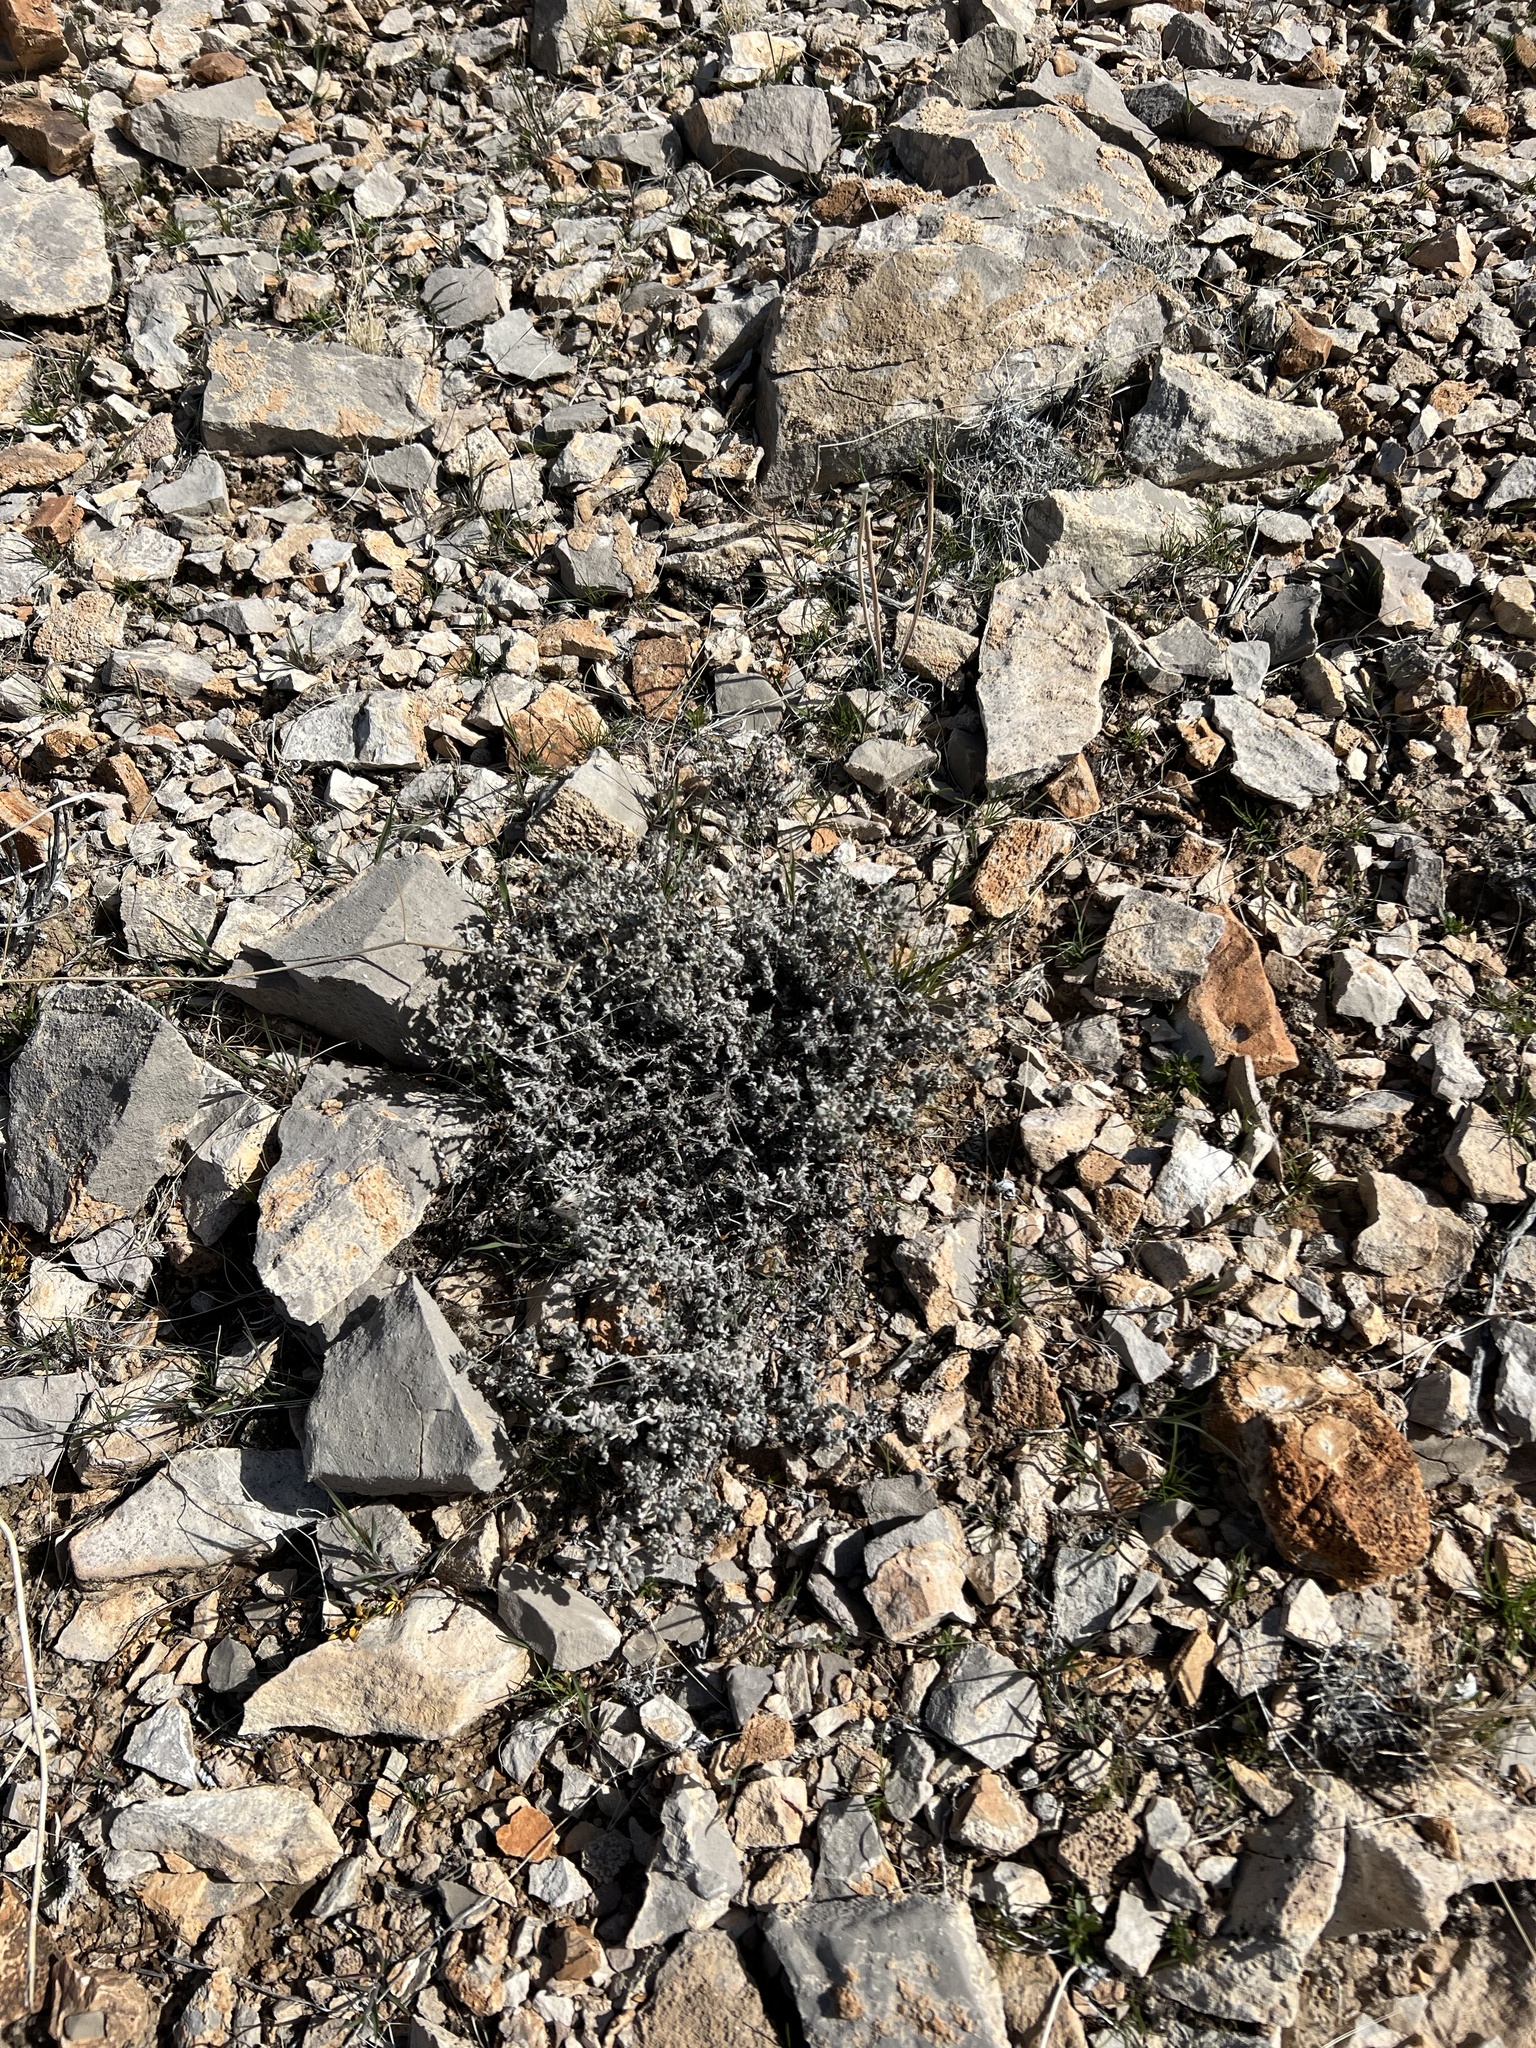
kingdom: Plantae
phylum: Tracheophyta
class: Magnoliopsida
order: Boraginales
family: Ehretiaceae
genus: Tiquilia
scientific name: Tiquilia canescens
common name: Hairy tiquilia
